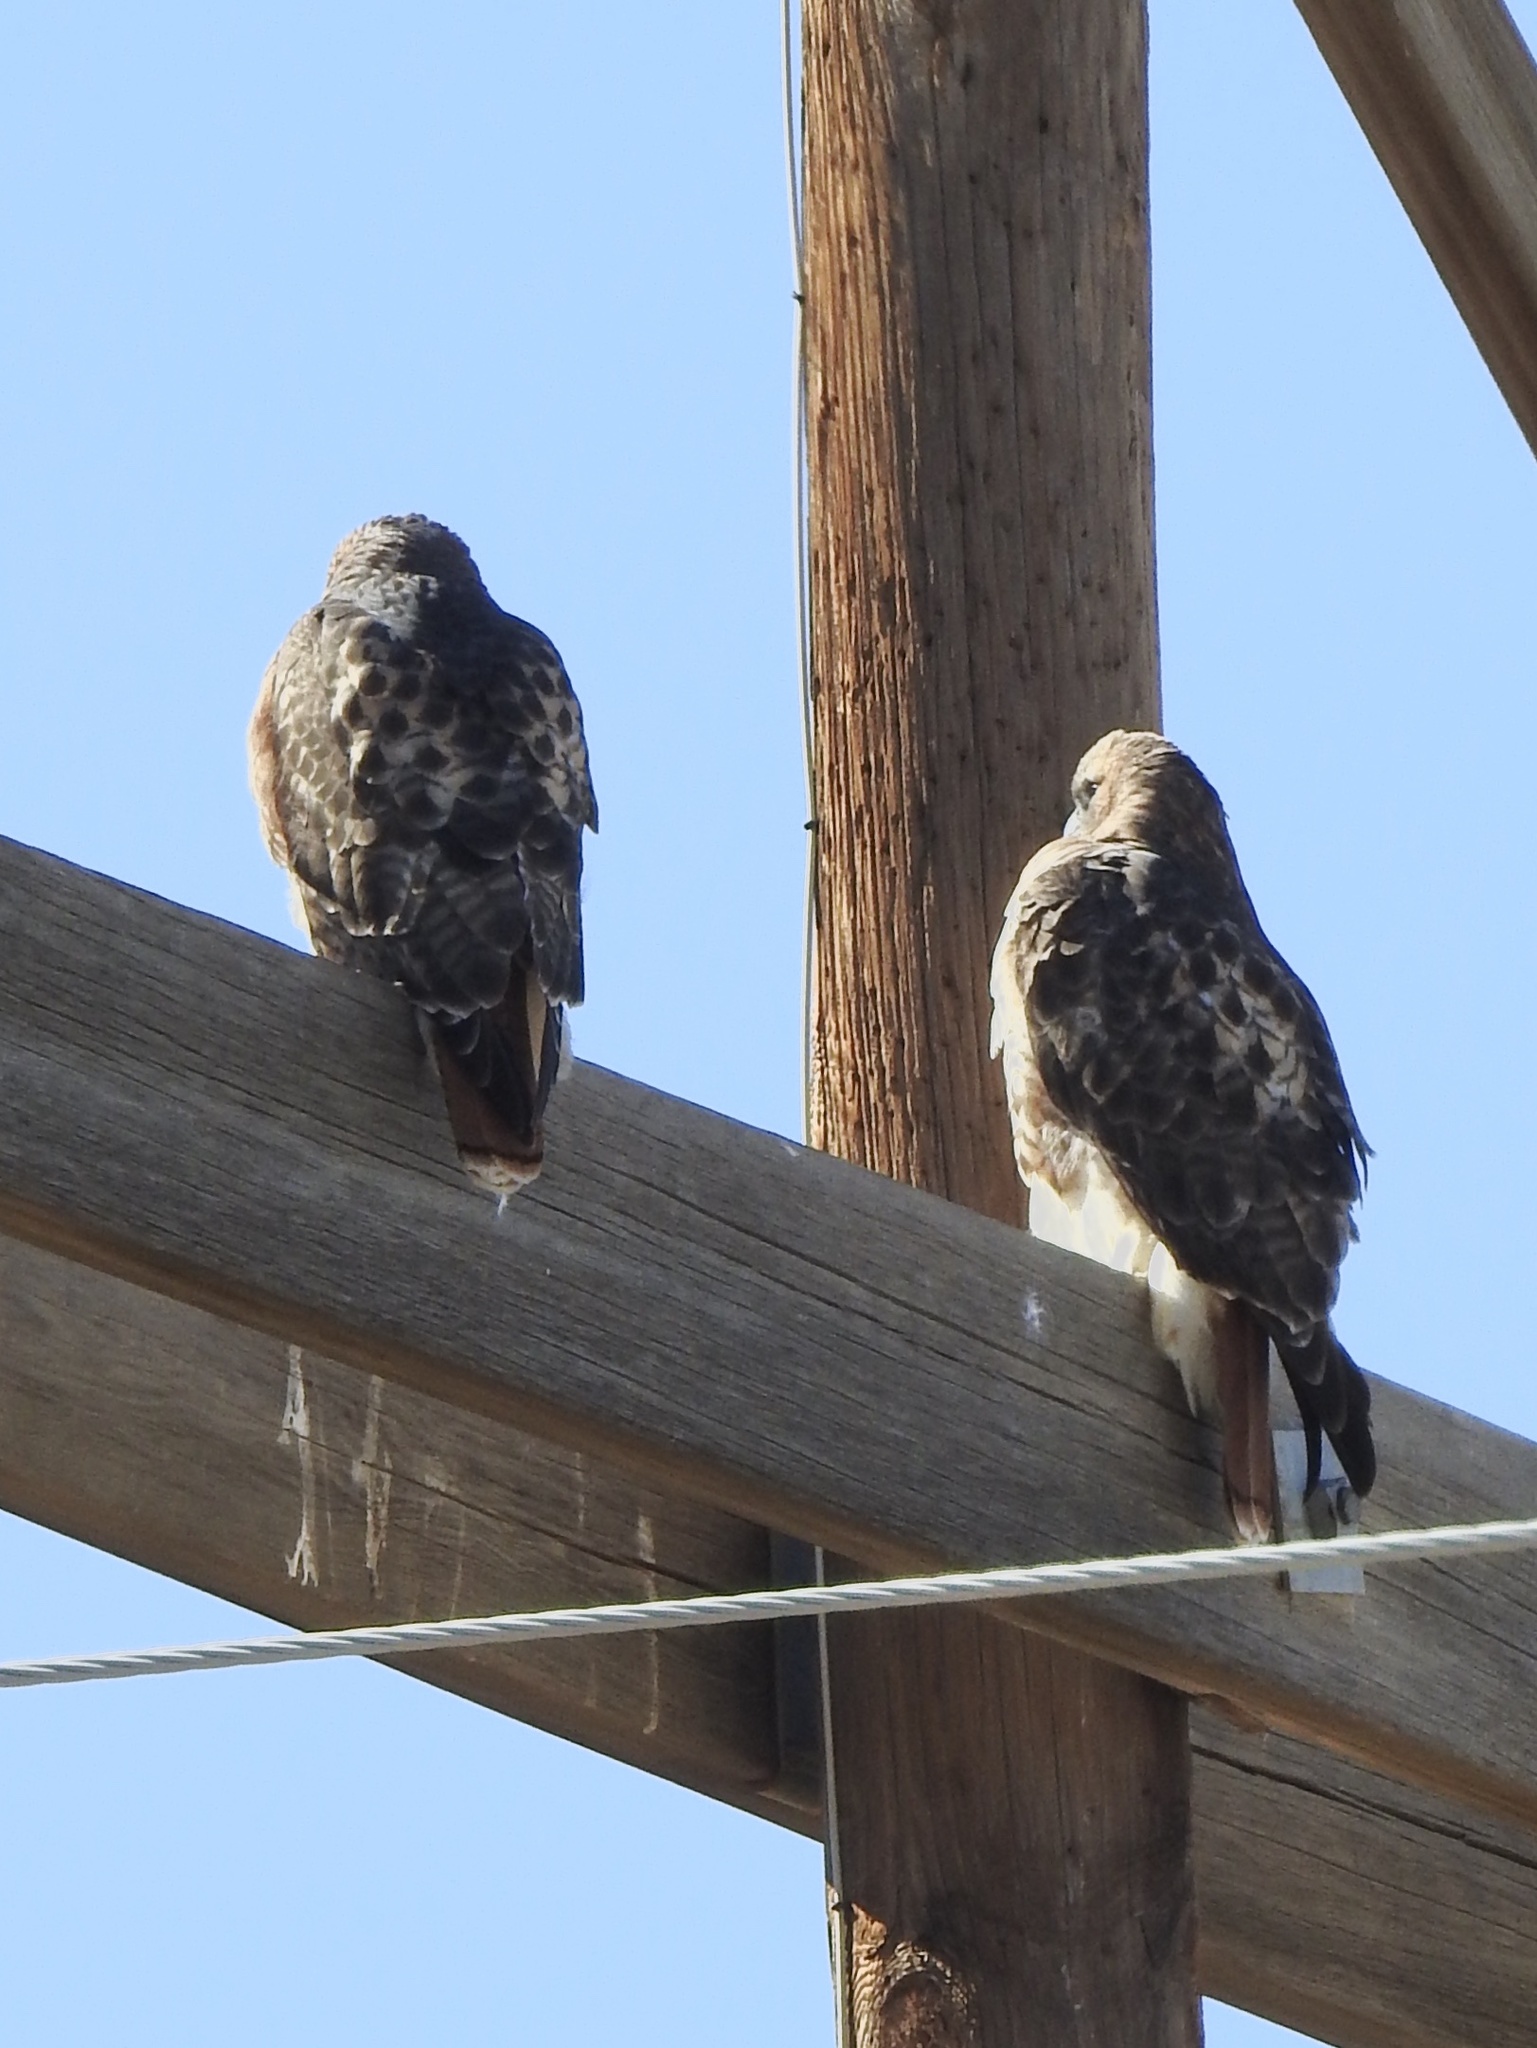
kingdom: Animalia
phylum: Chordata
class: Aves
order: Accipitriformes
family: Accipitridae
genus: Buteo
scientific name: Buteo jamaicensis
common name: Red-tailed hawk
